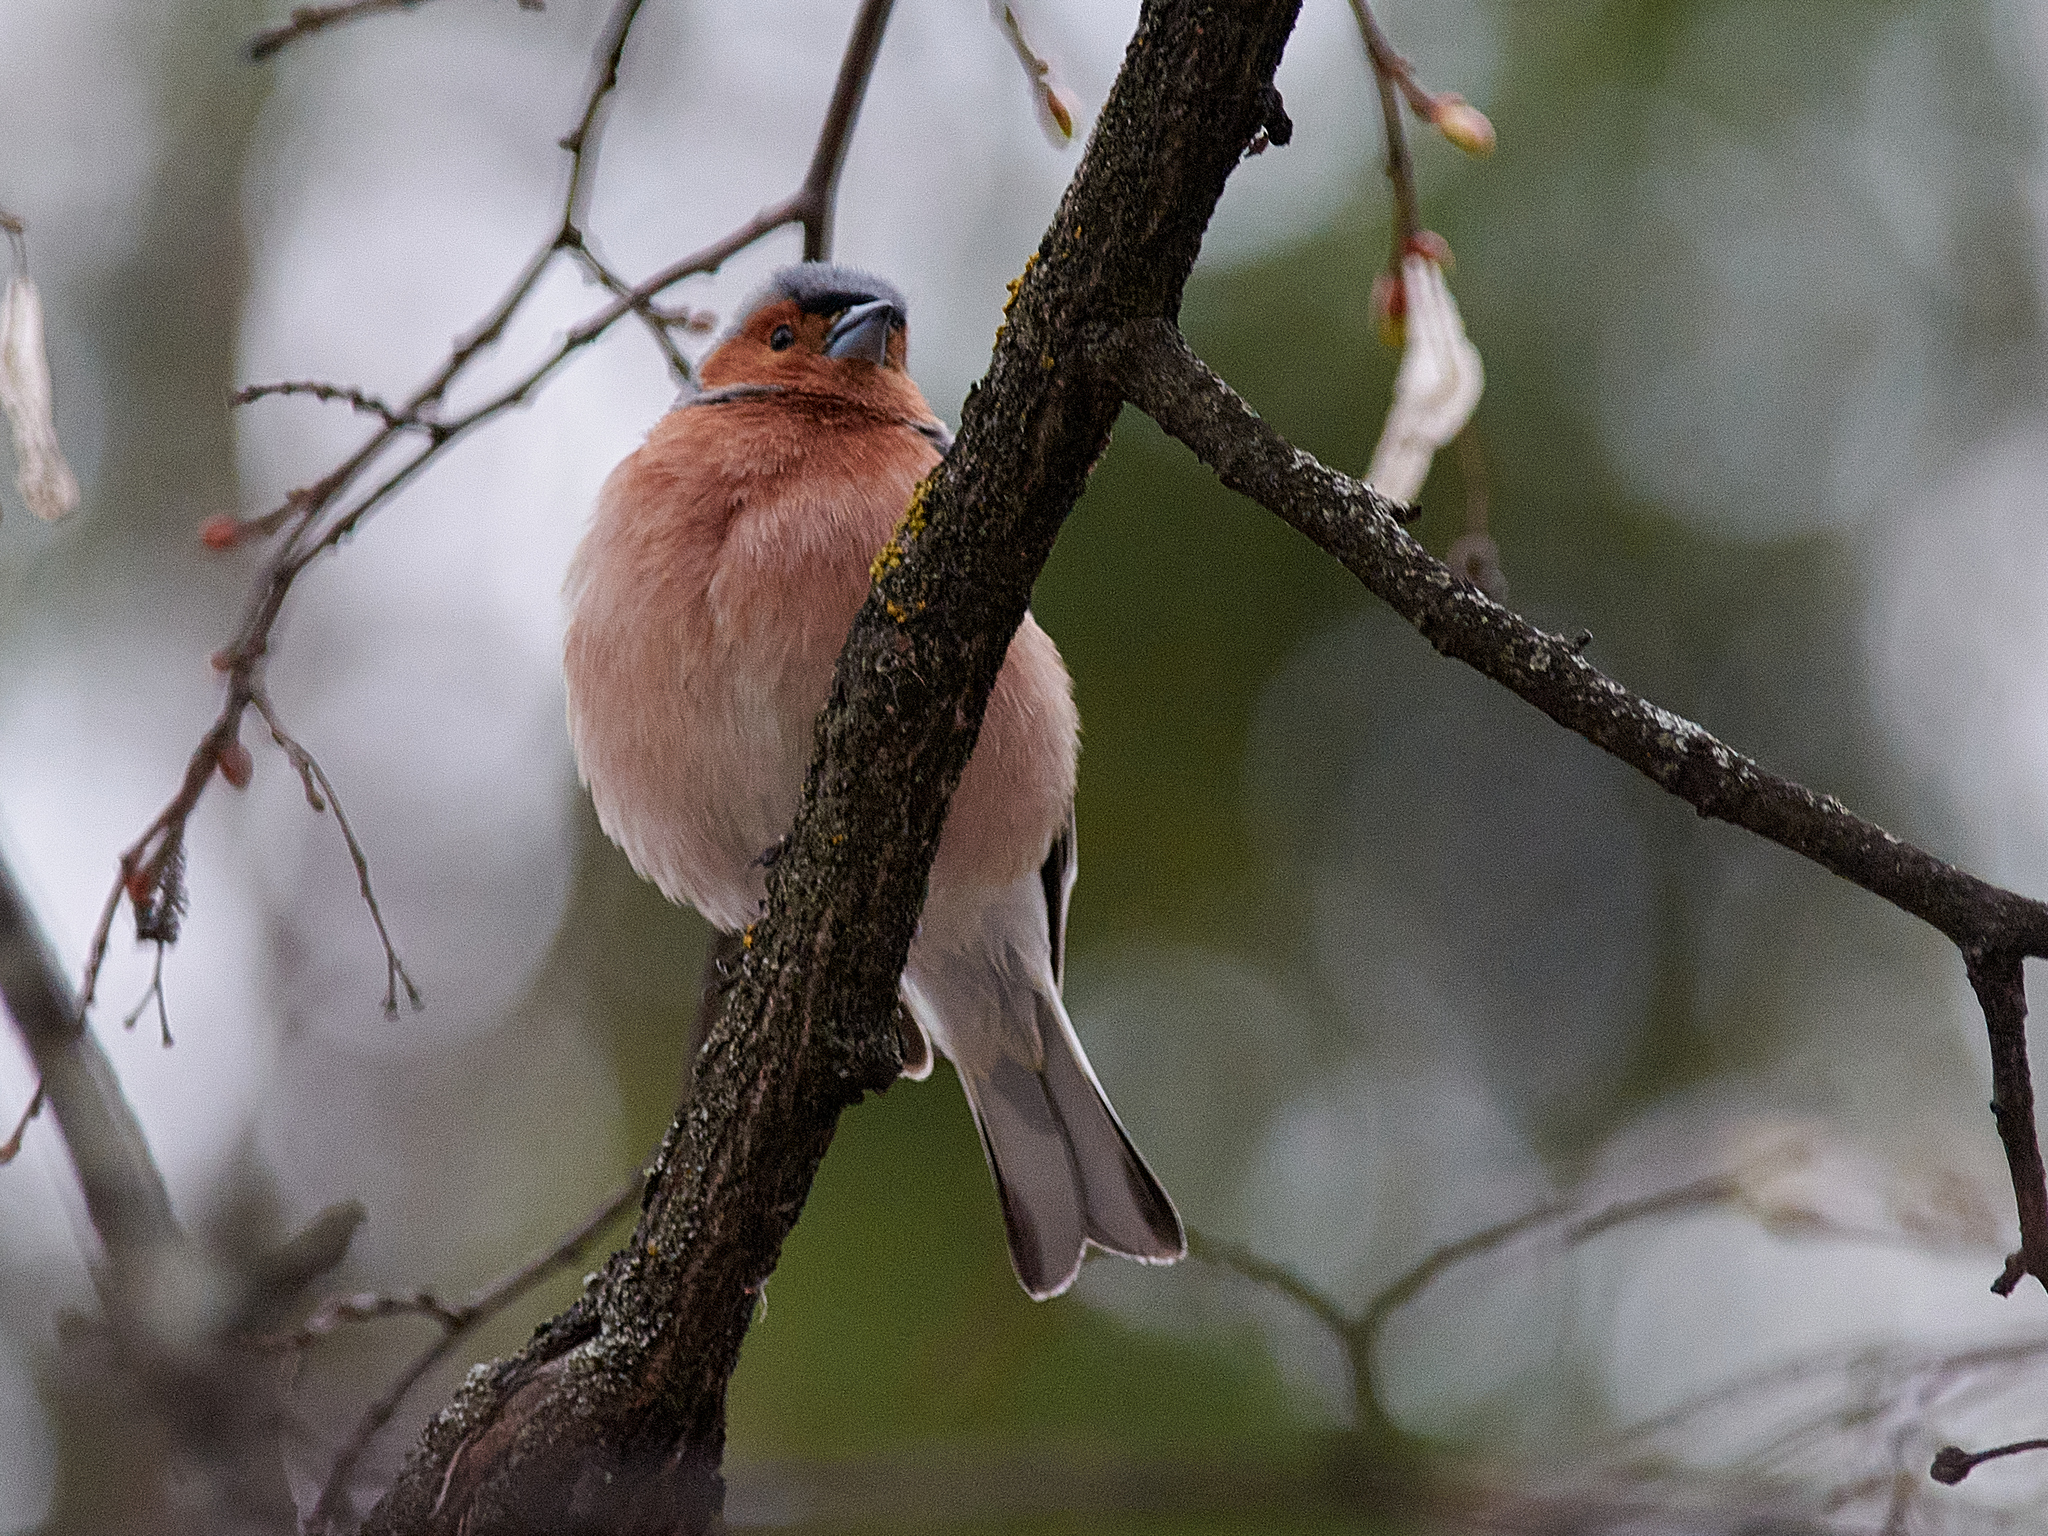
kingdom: Animalia
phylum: Chordata
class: Aves
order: Passeriformes
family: Fringillidae
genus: Fringilla
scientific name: Fringilla coelebs
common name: Common chaffinch
